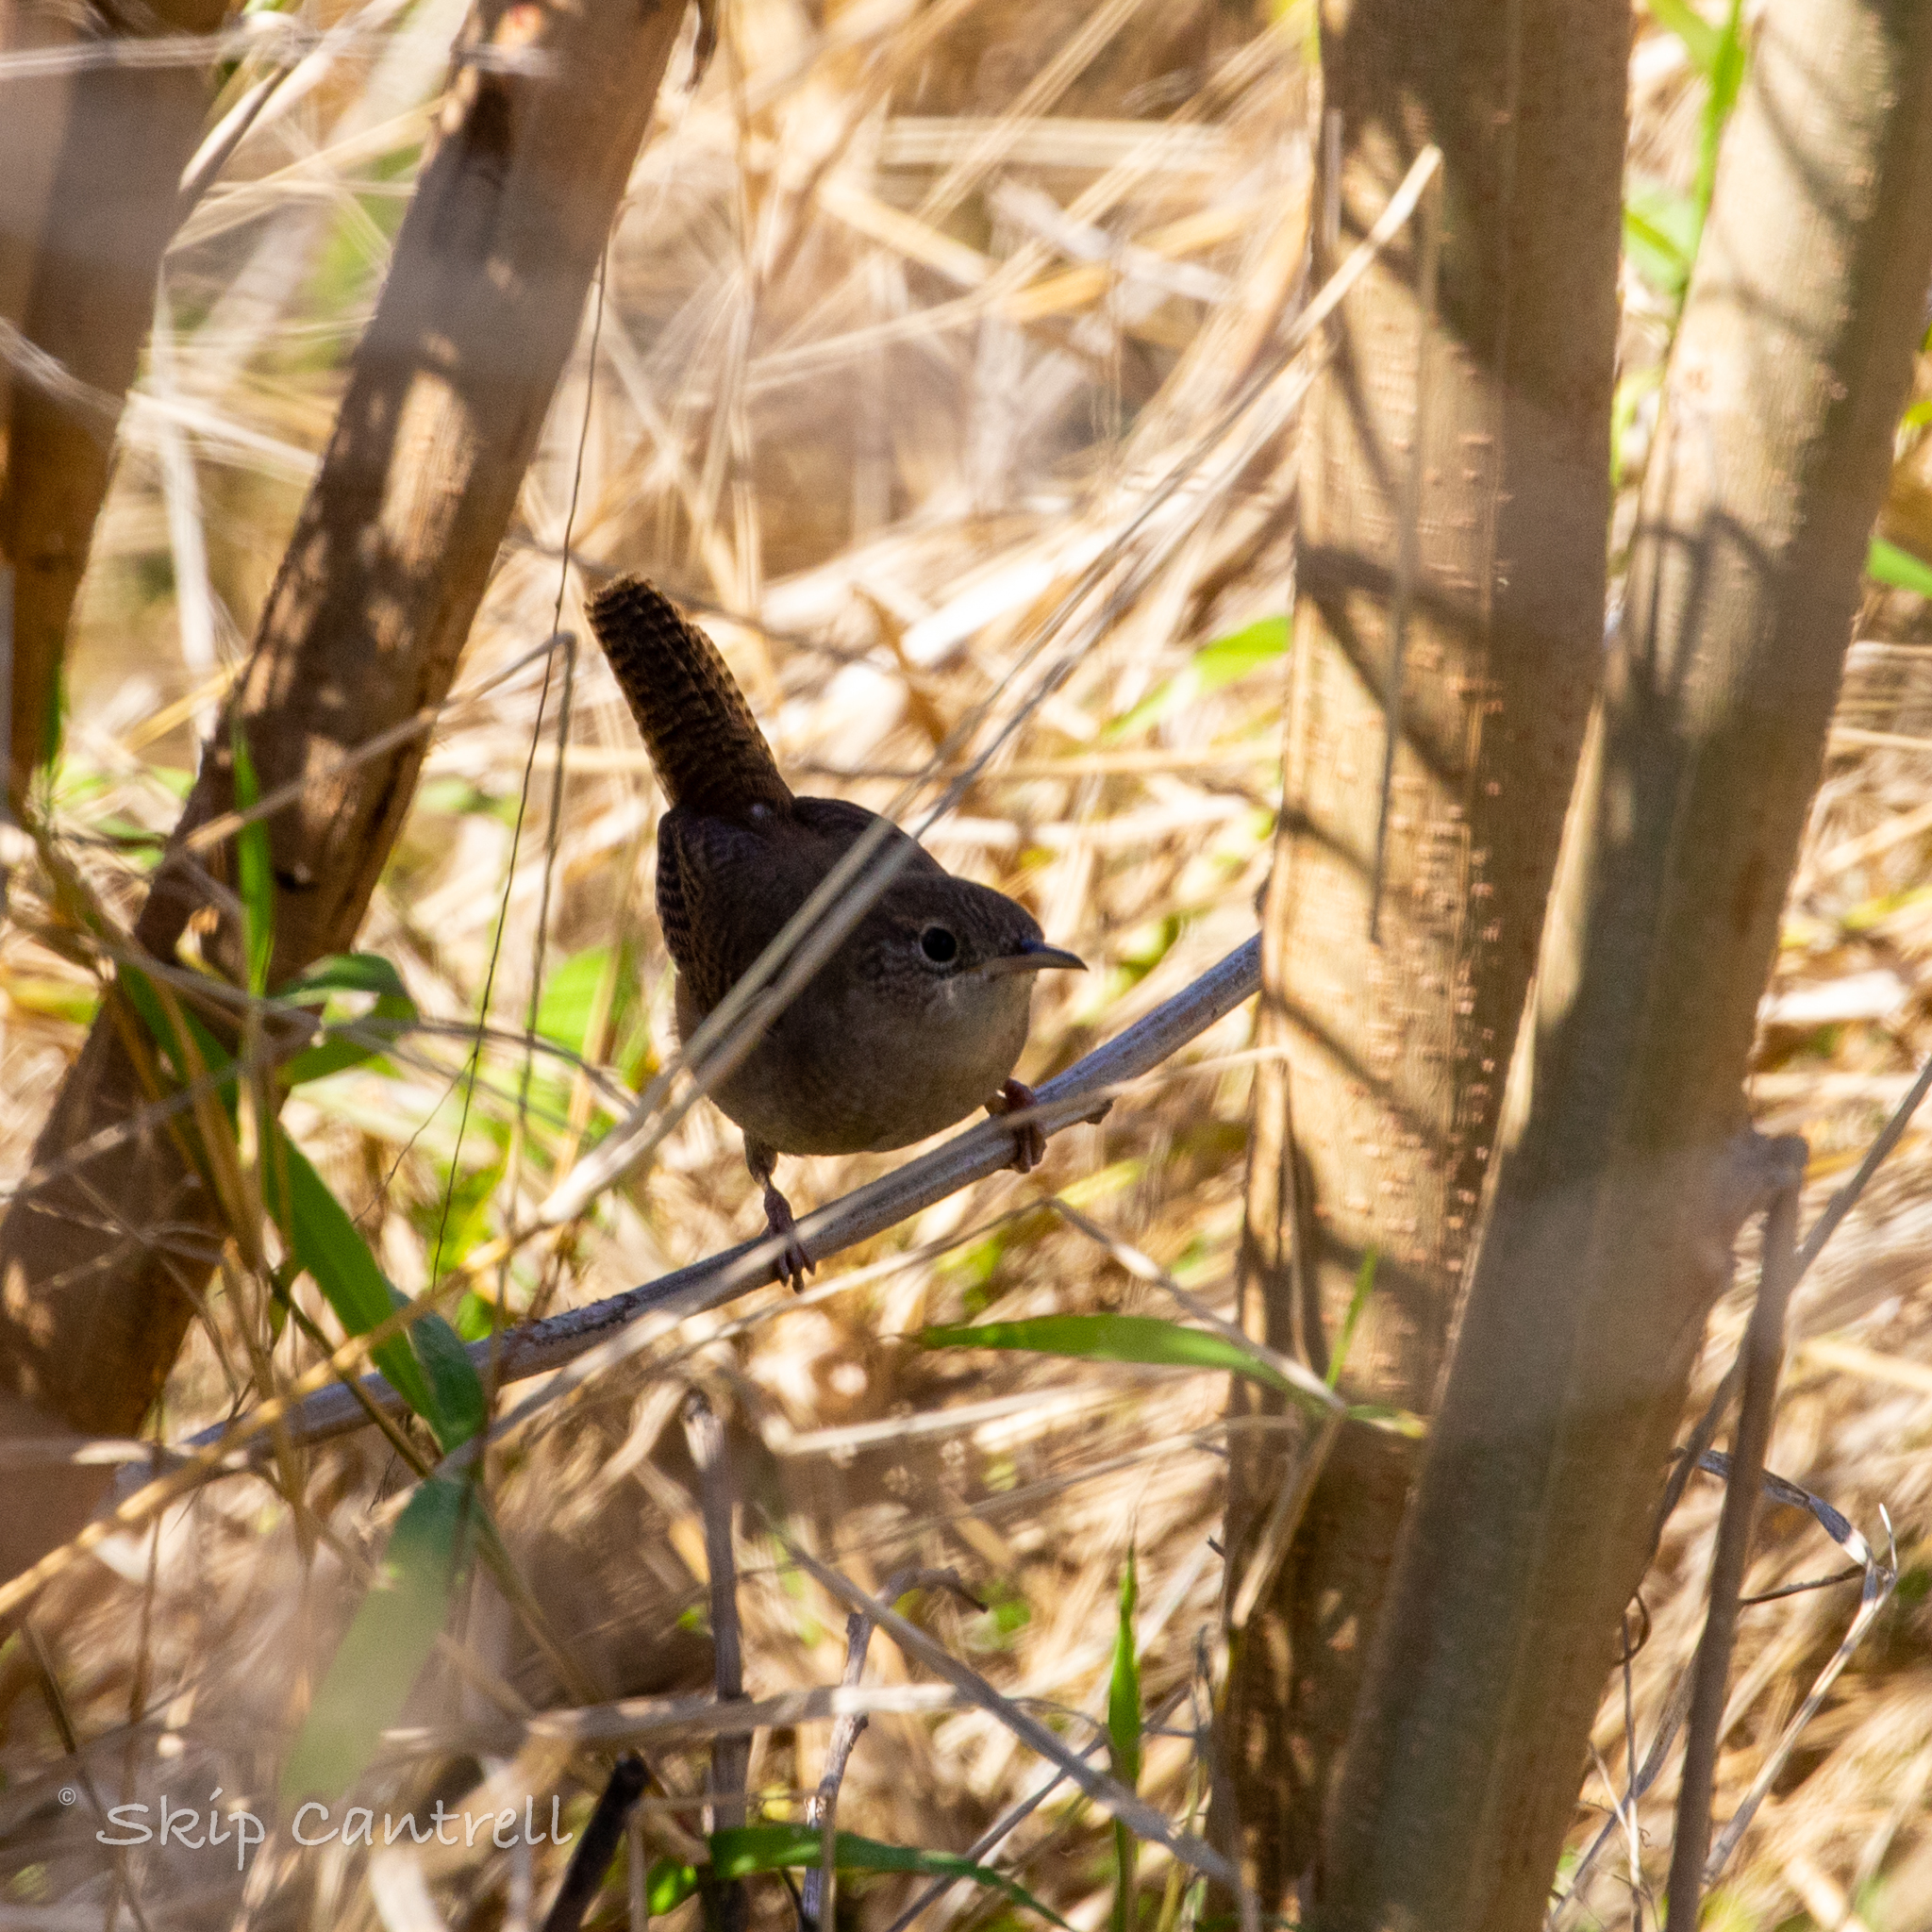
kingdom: Animalia
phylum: Chordata
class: Aves
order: Passeriformes
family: Troglodytidae
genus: Troglodytes
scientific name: Troglodytes aedon
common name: House wren
